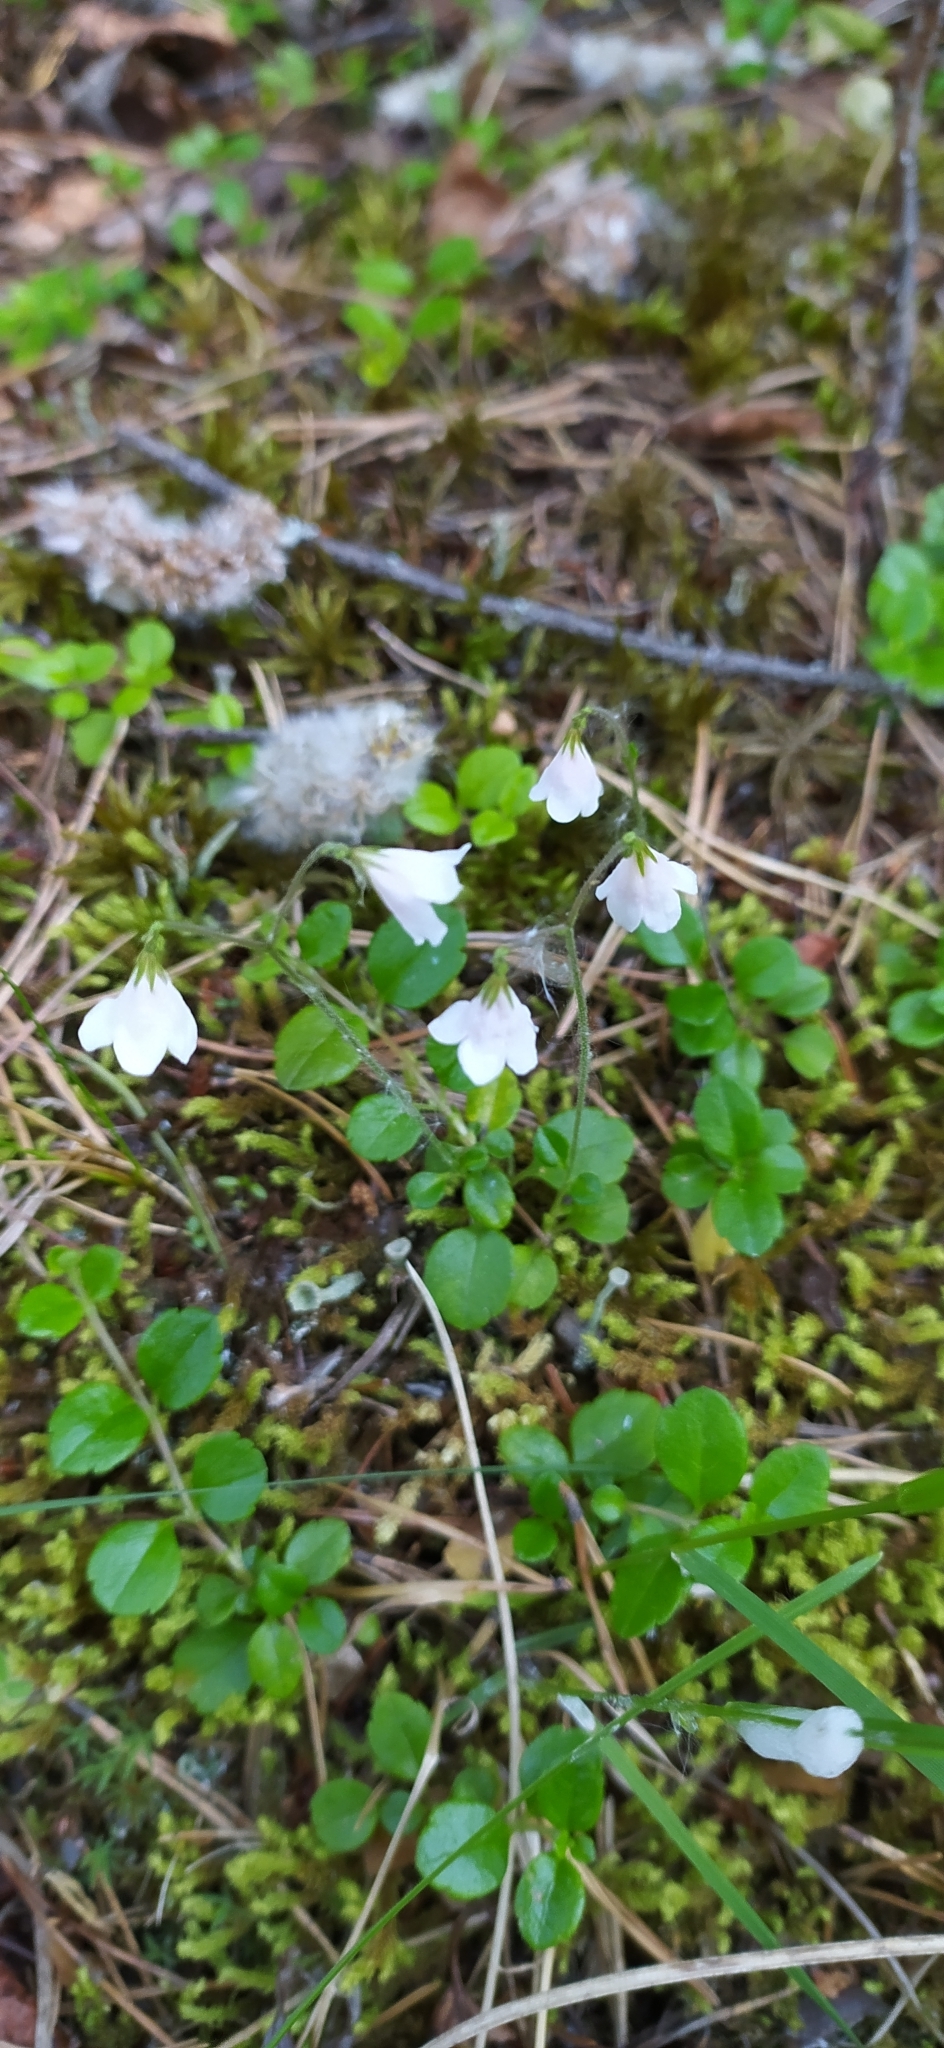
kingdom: Plantae
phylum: Tracheophyta
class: Magnoliopsida
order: Dipsacales
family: Caprifoliaceae
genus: Linnaea
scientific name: Linnaea borealis
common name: Twinflower
